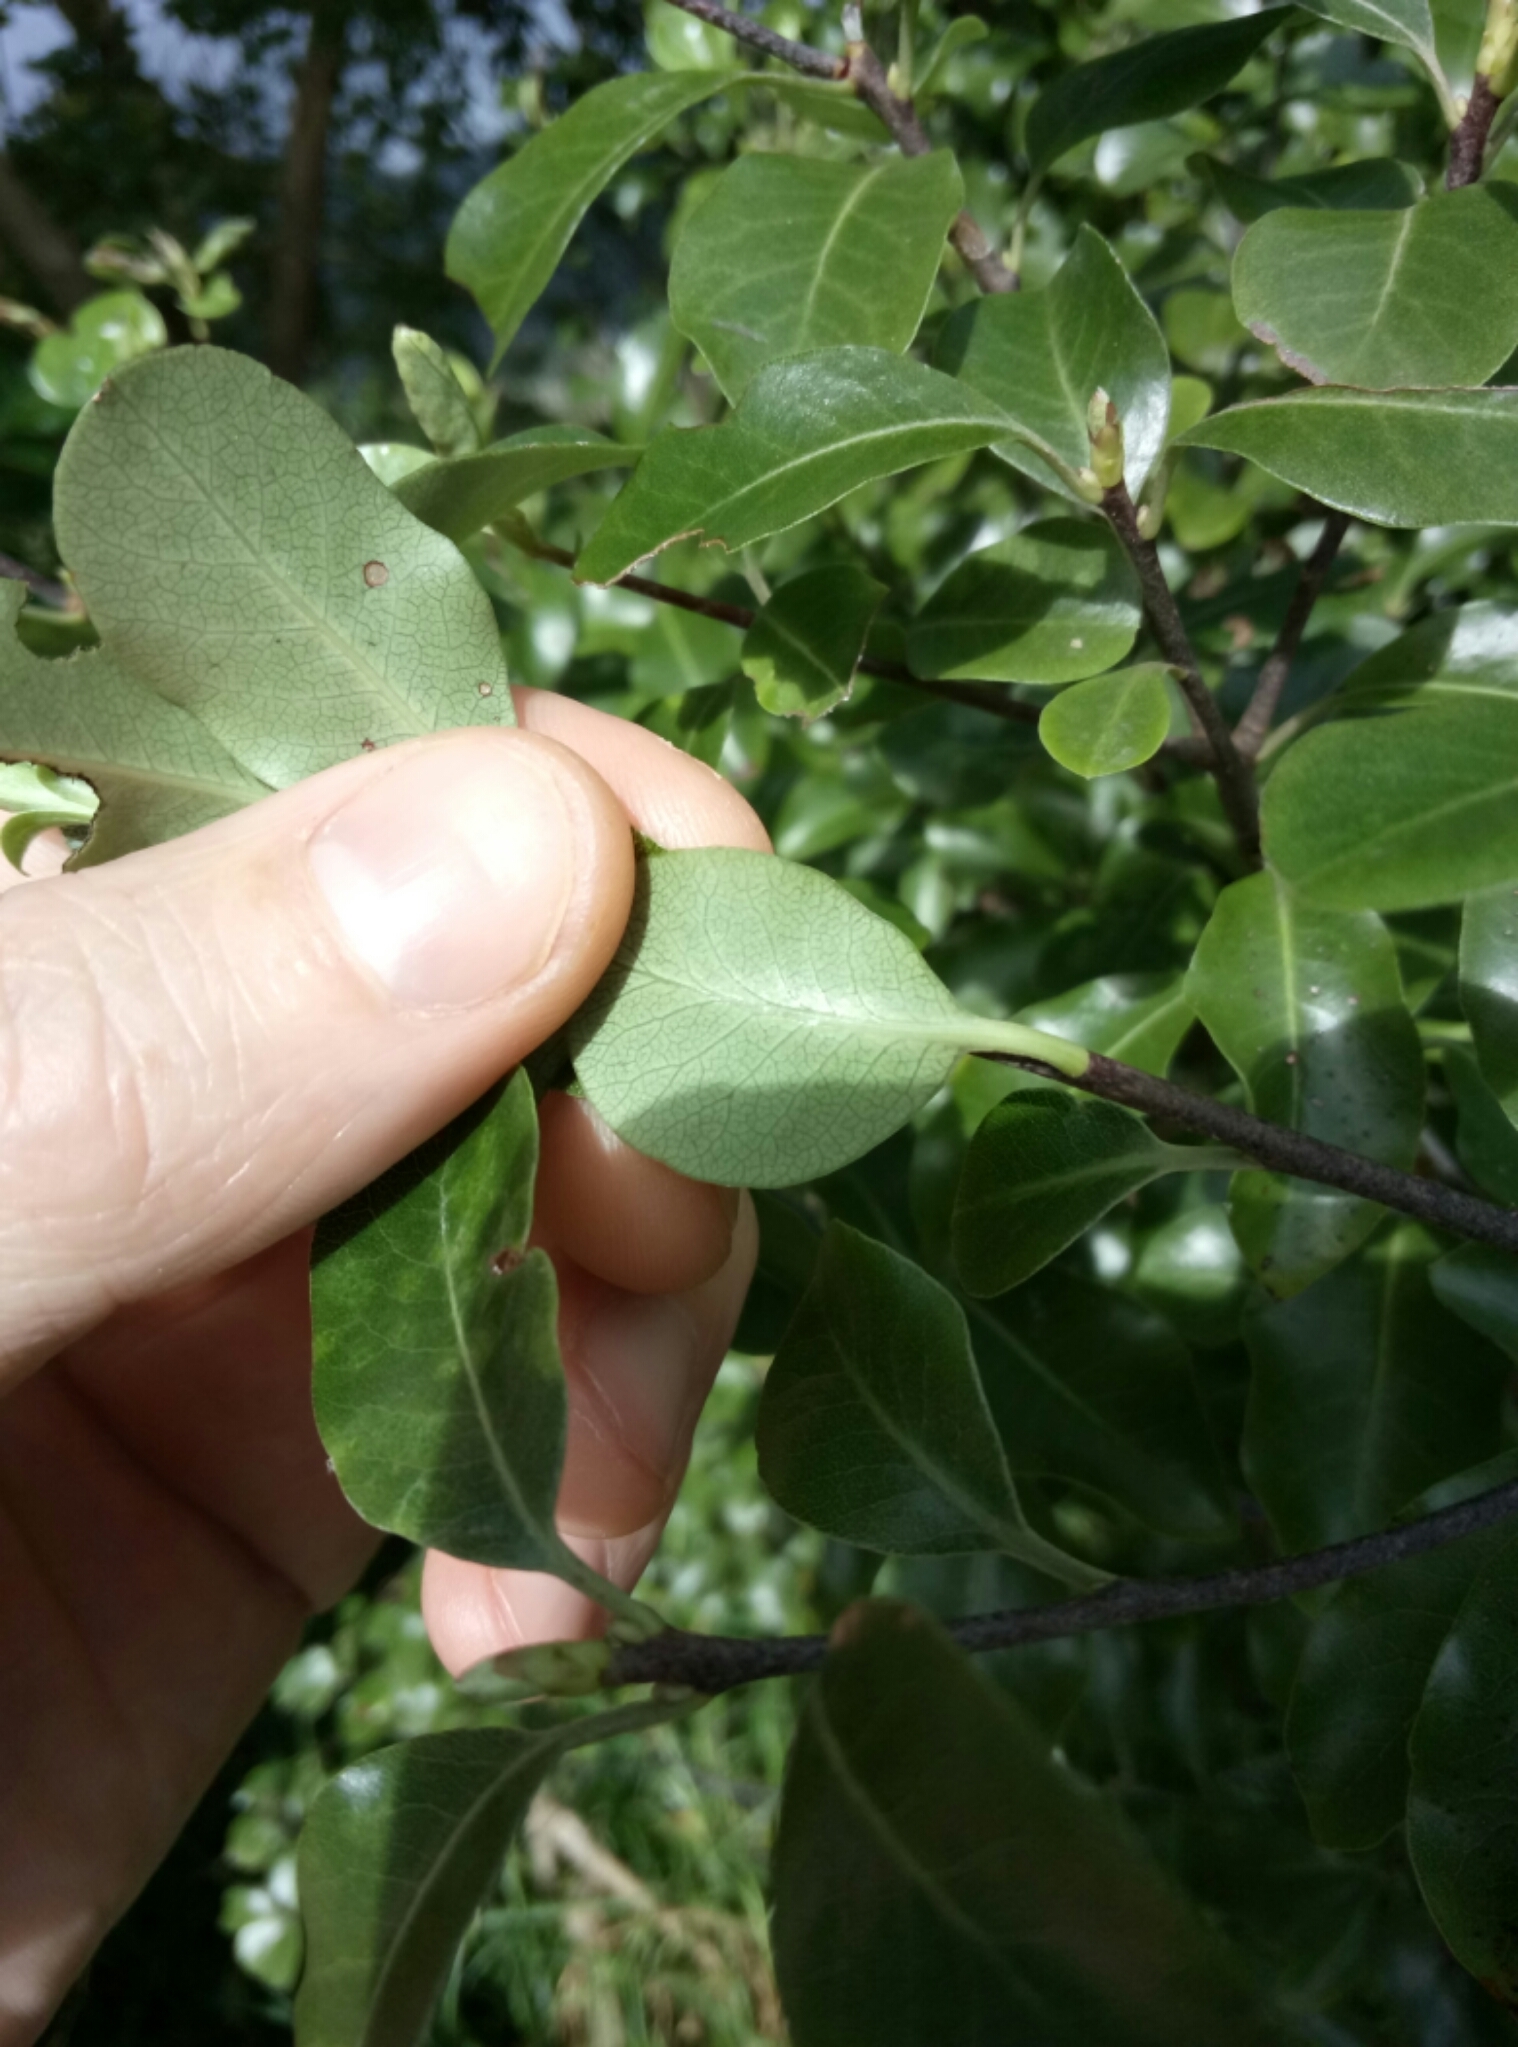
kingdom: Plantae
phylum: Tracheophyta
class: Magnoliopsida
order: Apiales
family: Pittosporaceae
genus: Pittosporum
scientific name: Pittosporum tenuifolium
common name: Kohuhu
